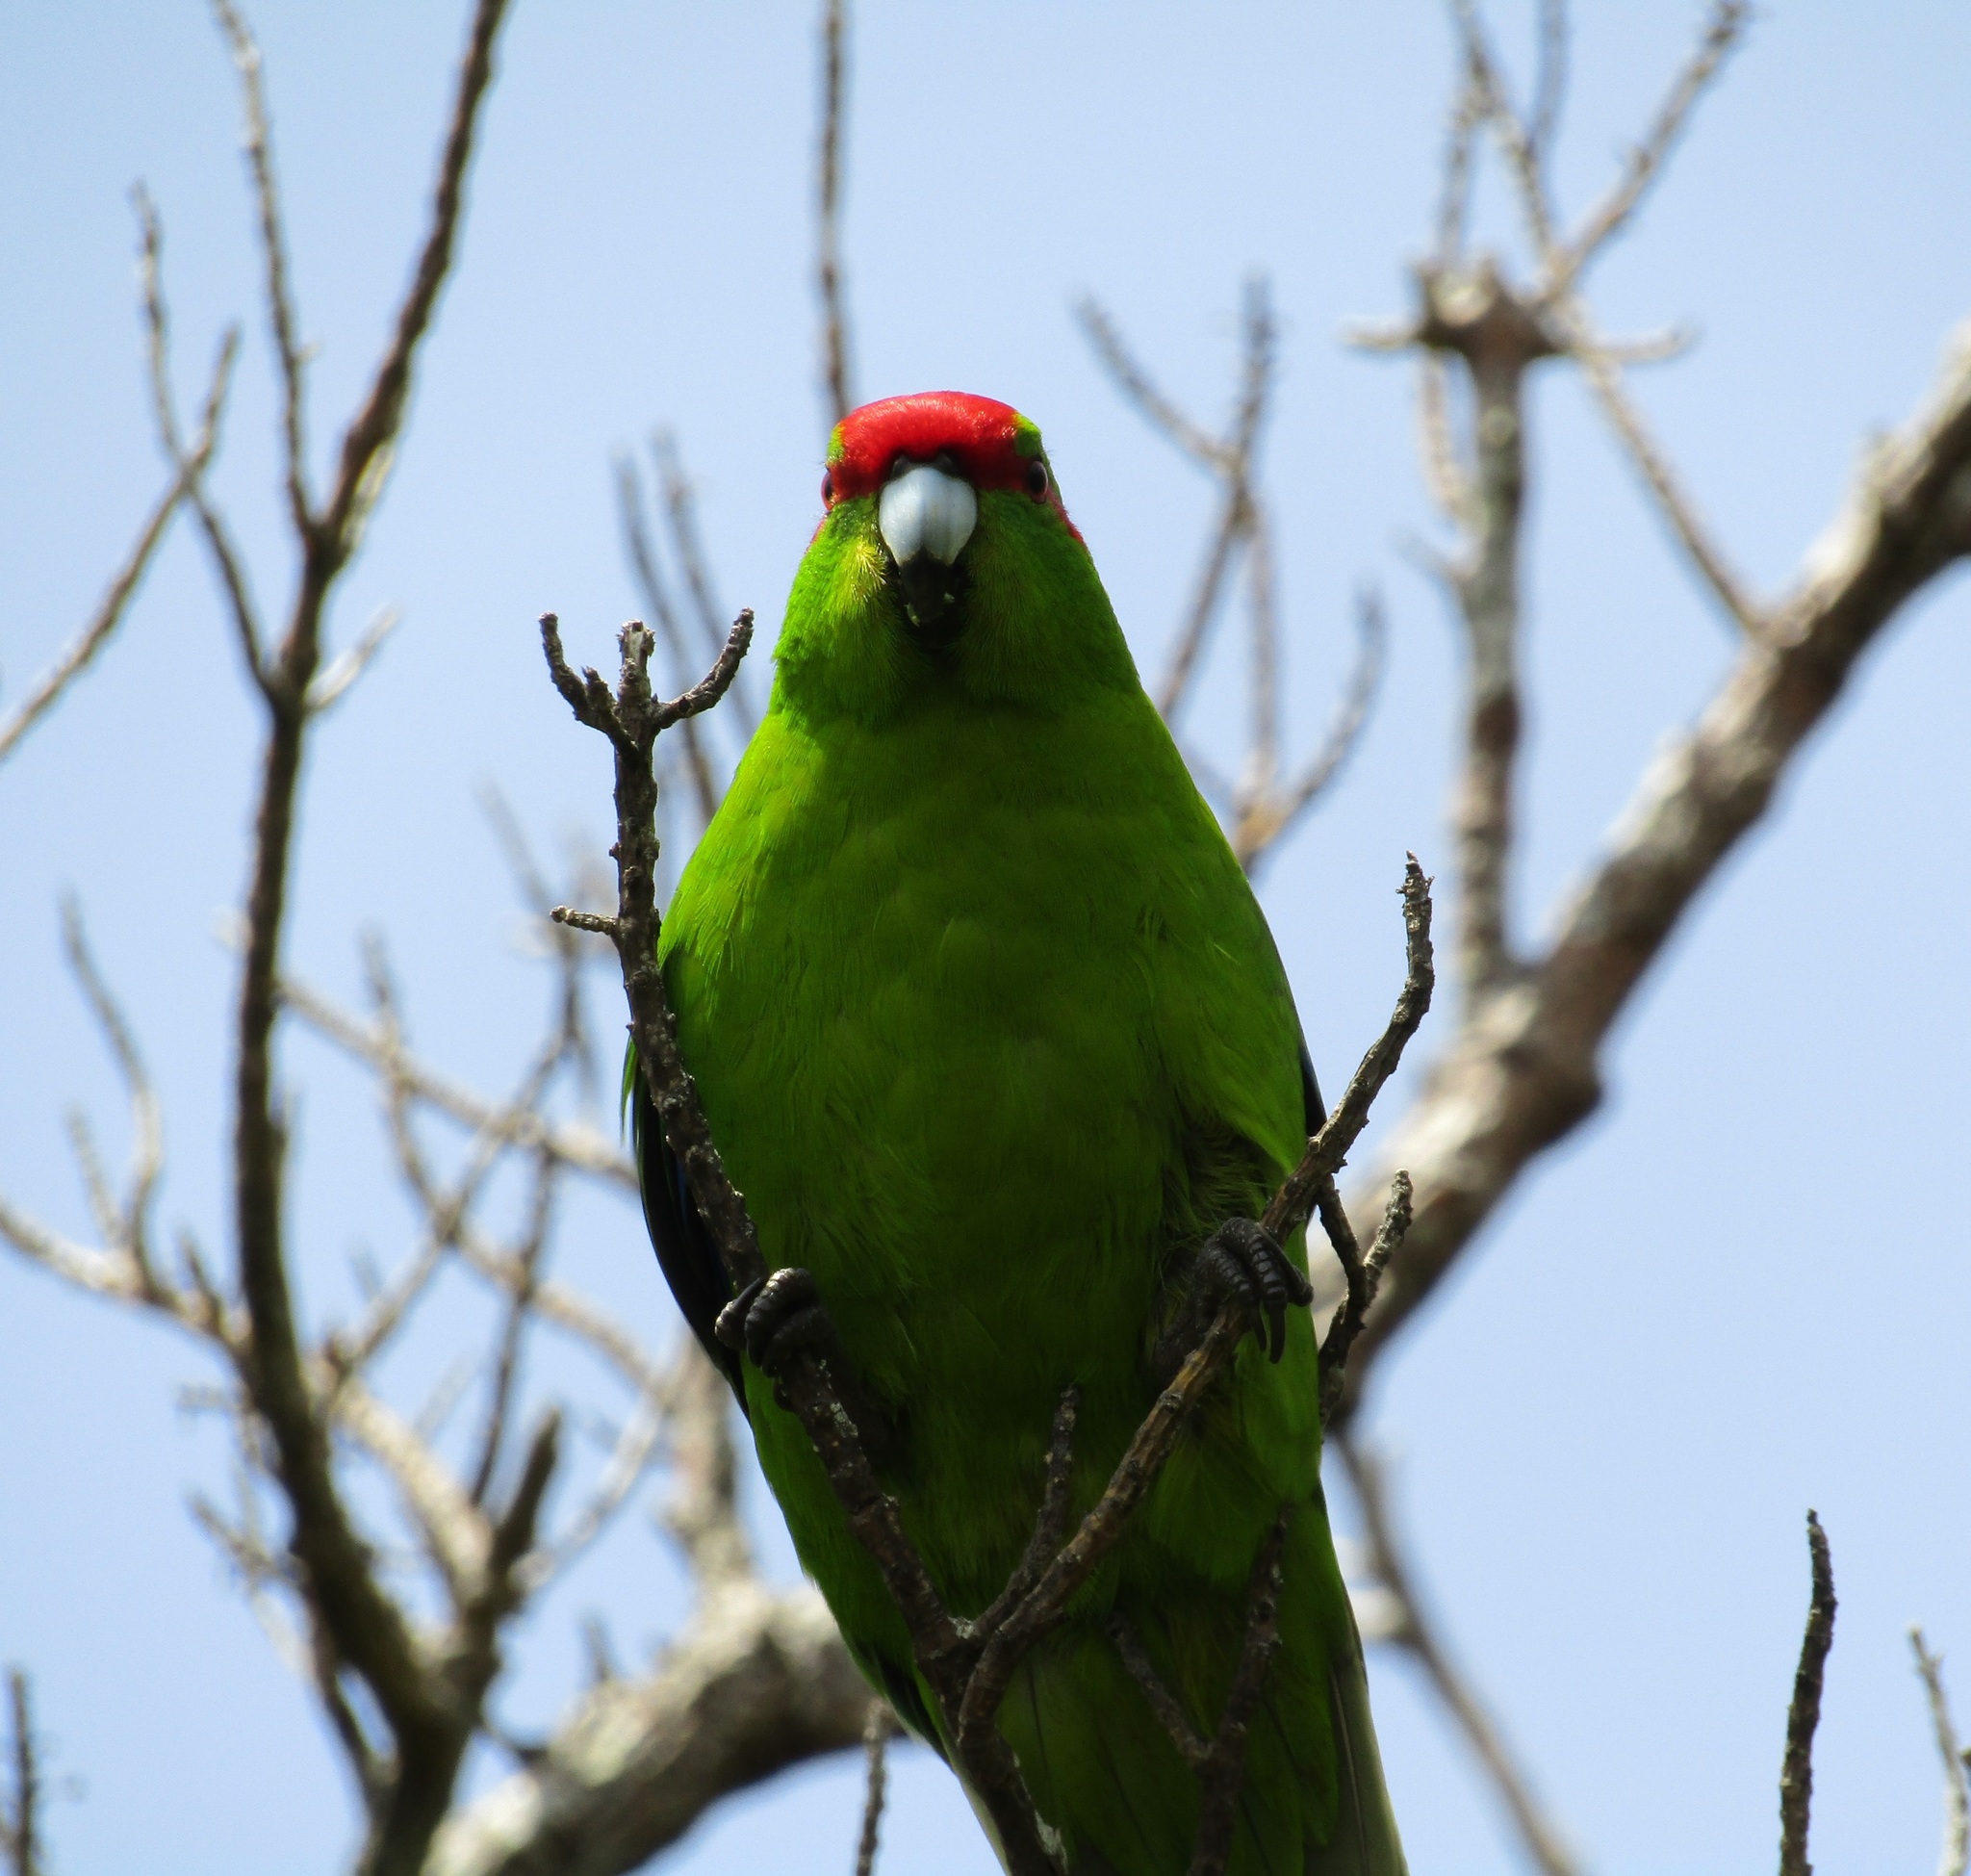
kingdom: Animalia
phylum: Chordata
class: Aves
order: Psittaciformes
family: Psittacidae
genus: Cyanoramphus
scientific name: Cyanoramphus novaezelandiae
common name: Red-fronted parakeet
